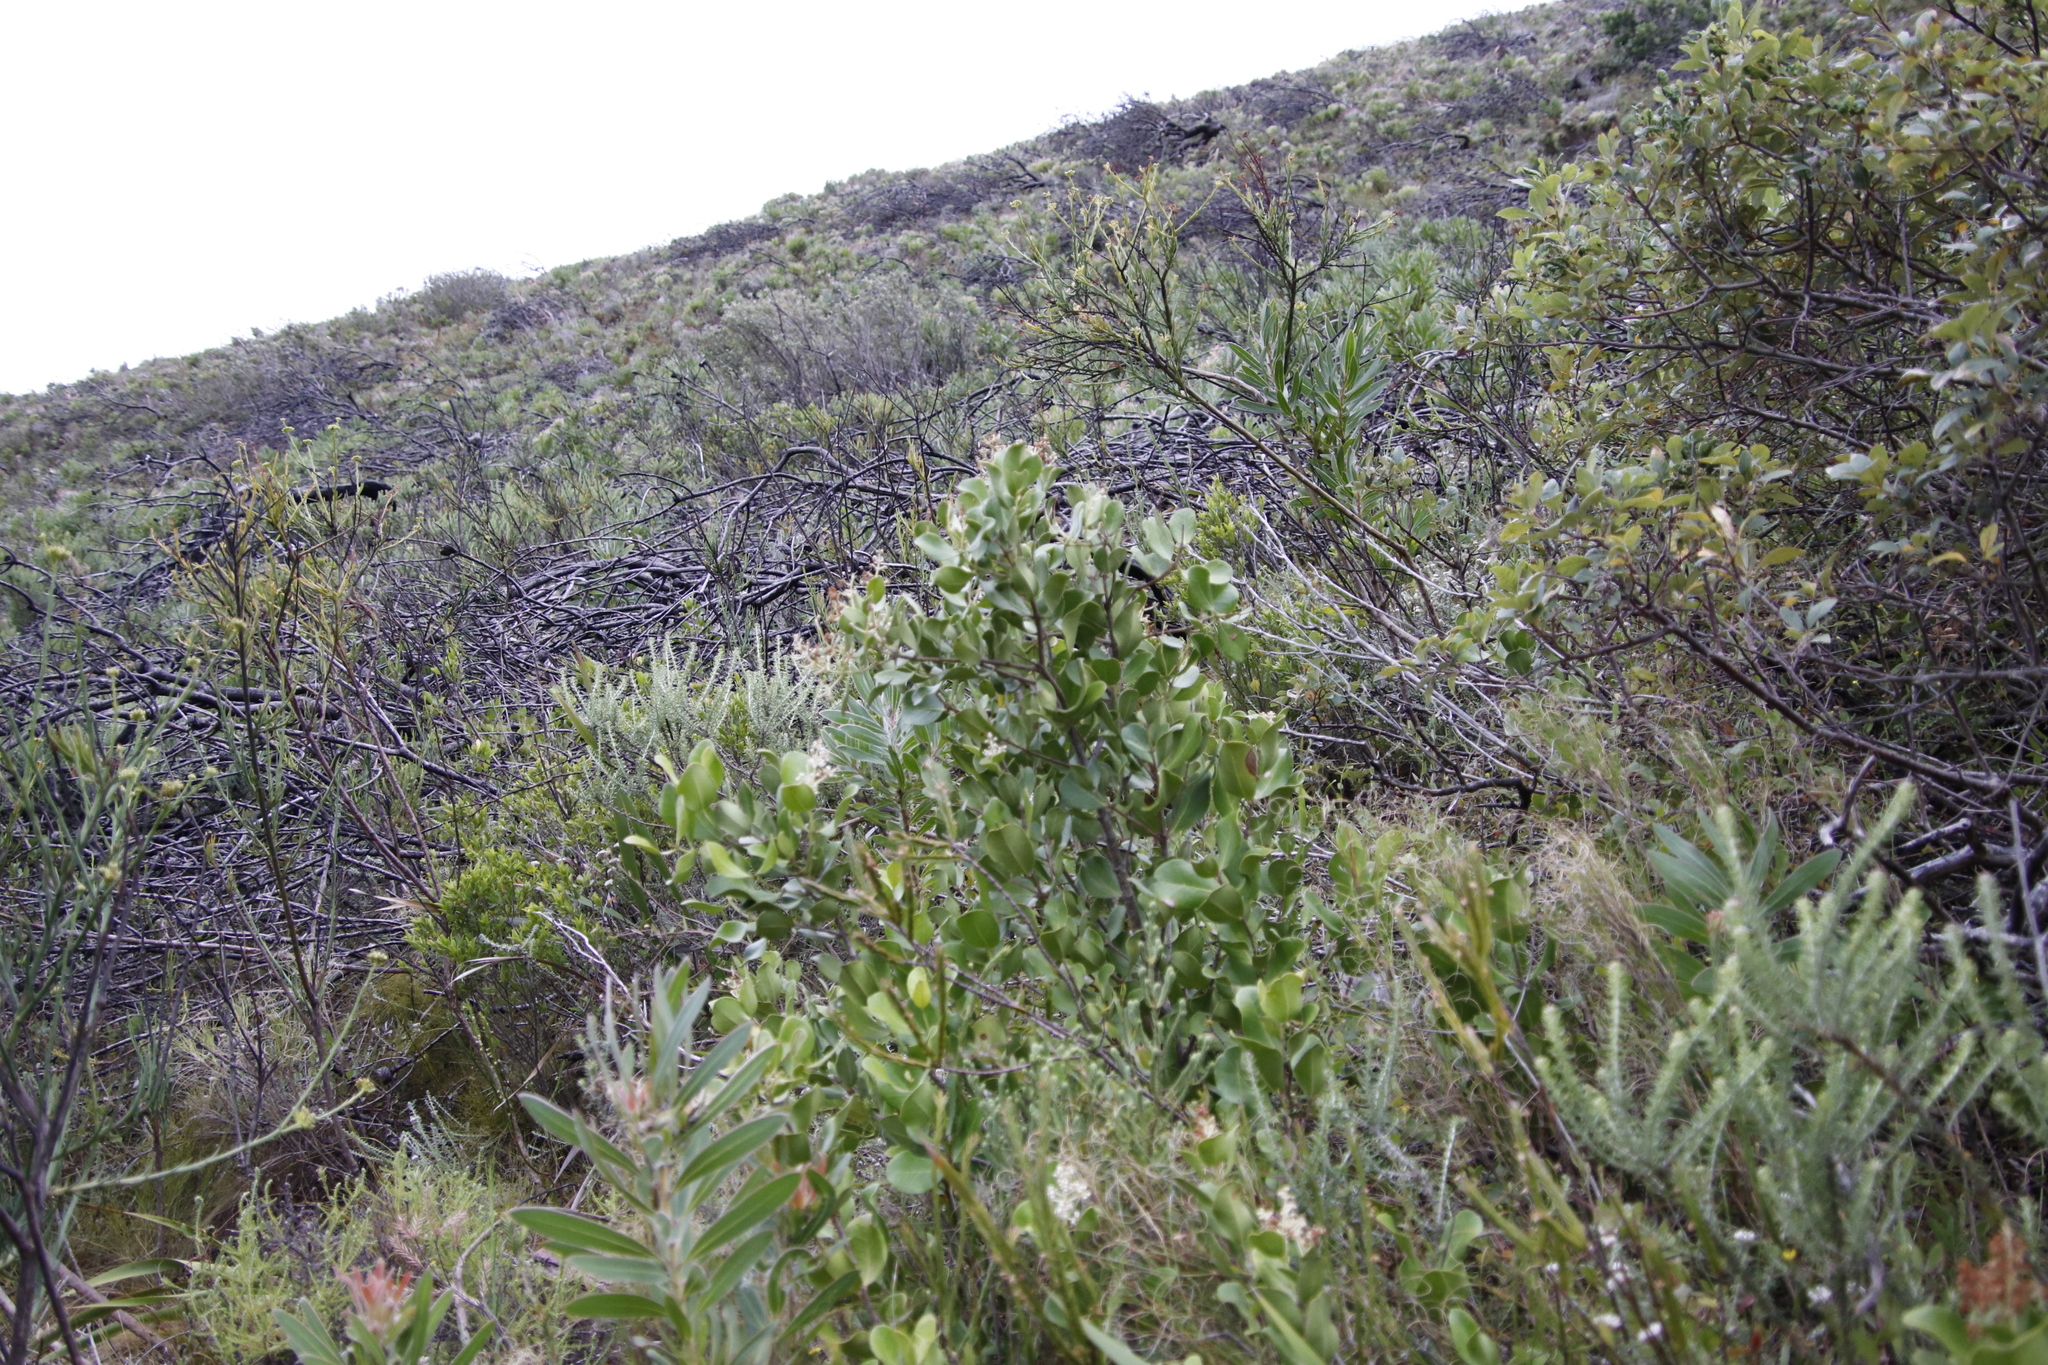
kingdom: Plantae
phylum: Tracheophyta
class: Magnoliopsida
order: Lamiales
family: Oleaceae
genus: Olea
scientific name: Olea capensis
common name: Black ironwood
